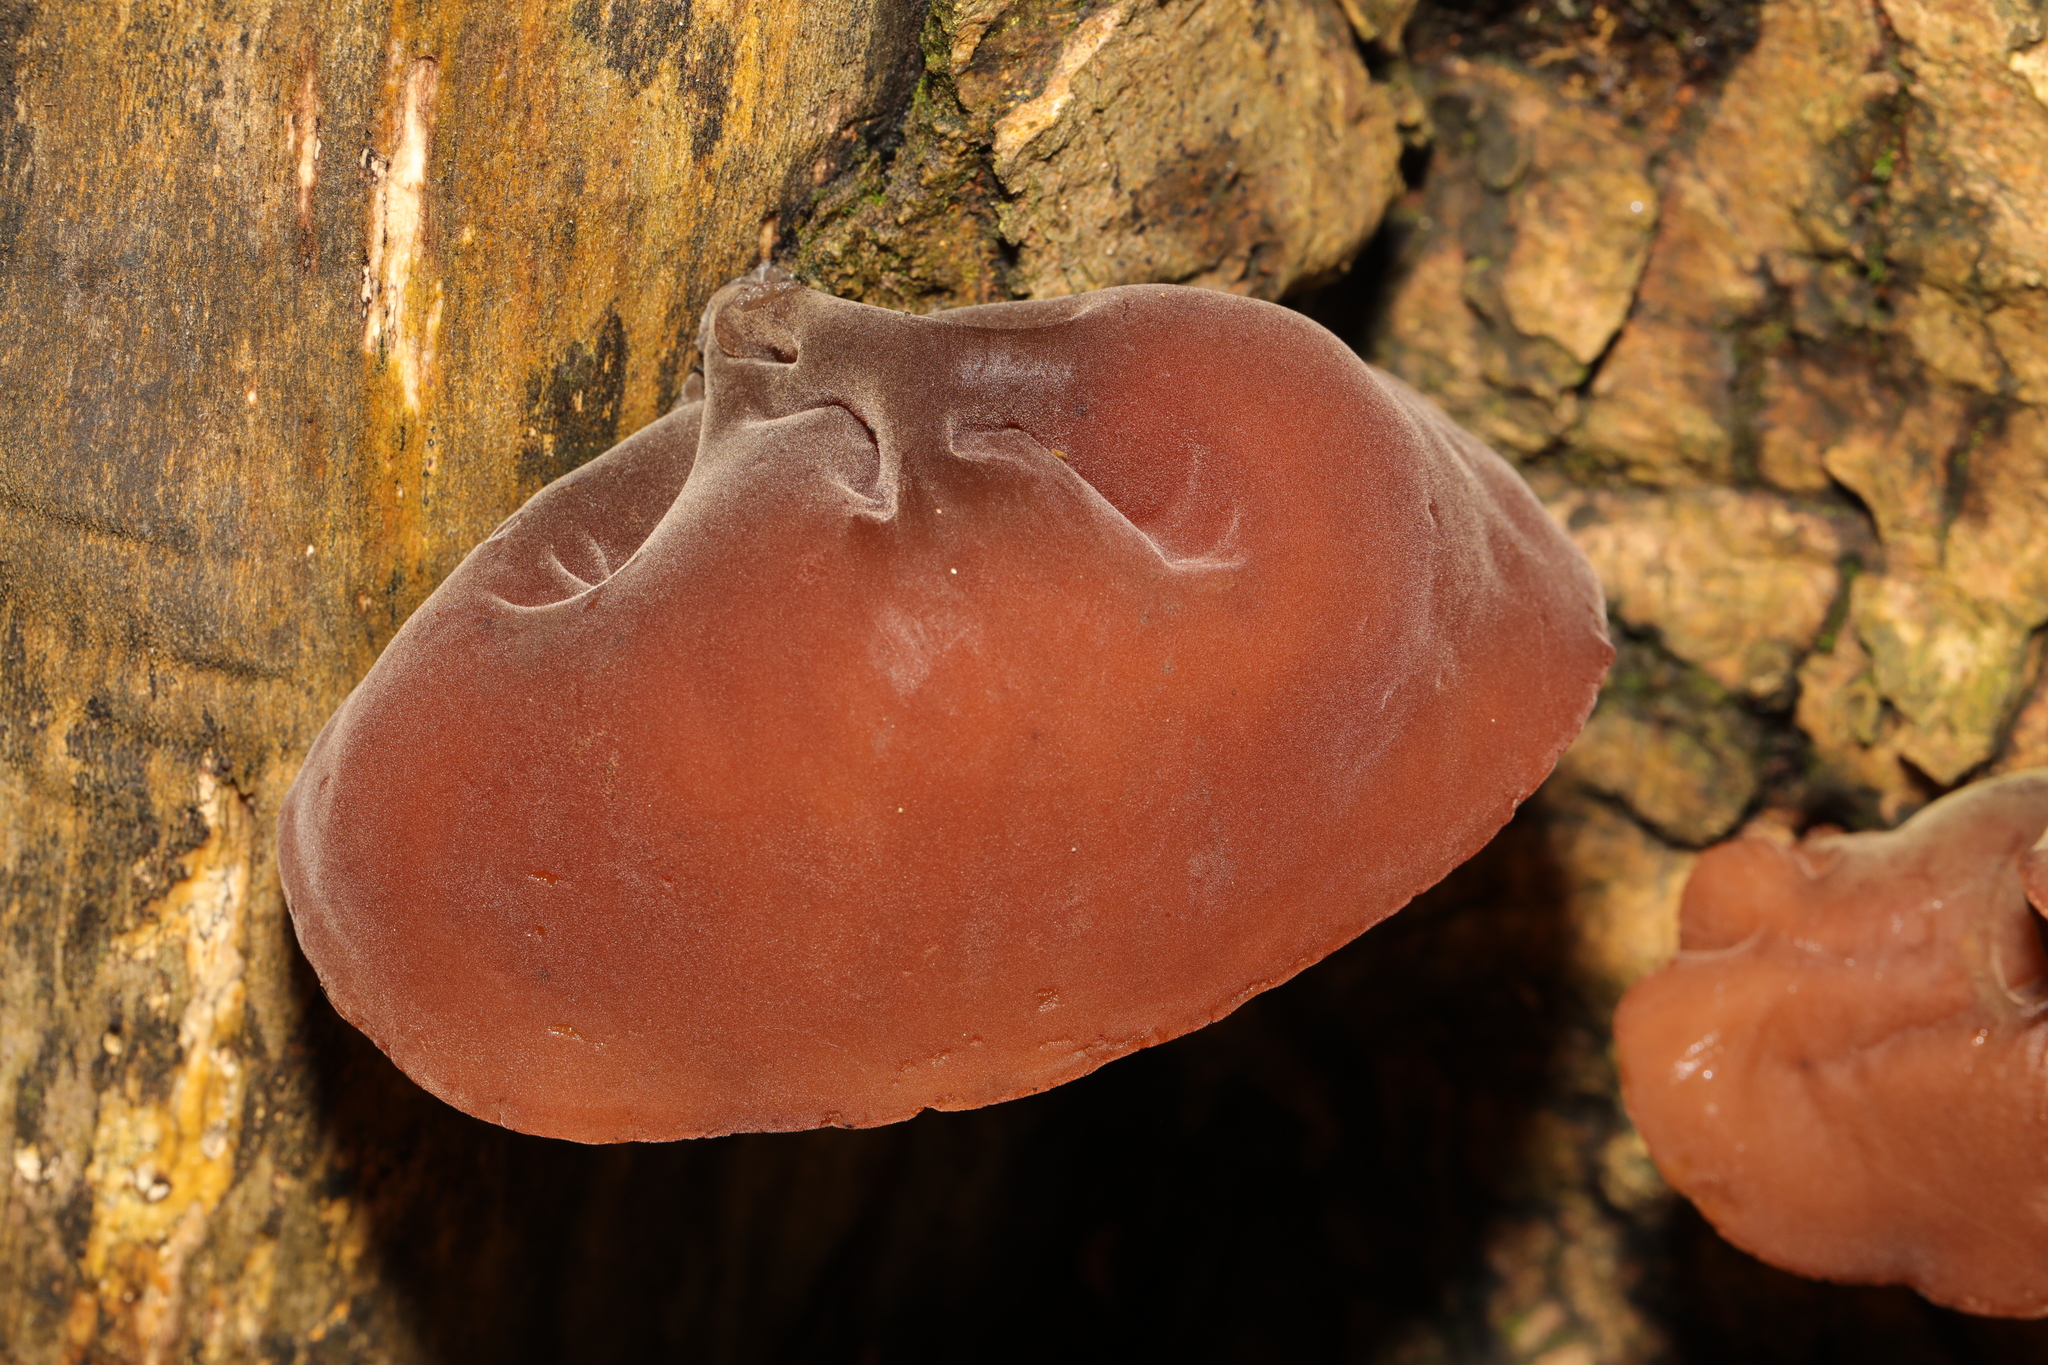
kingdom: Fungi
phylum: Basidiomycota
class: Agaricomycetes
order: Auriculariales
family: Auriculariaceae
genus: Auricularia
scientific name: Auricularia auricula-judae
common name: Jelly ear
